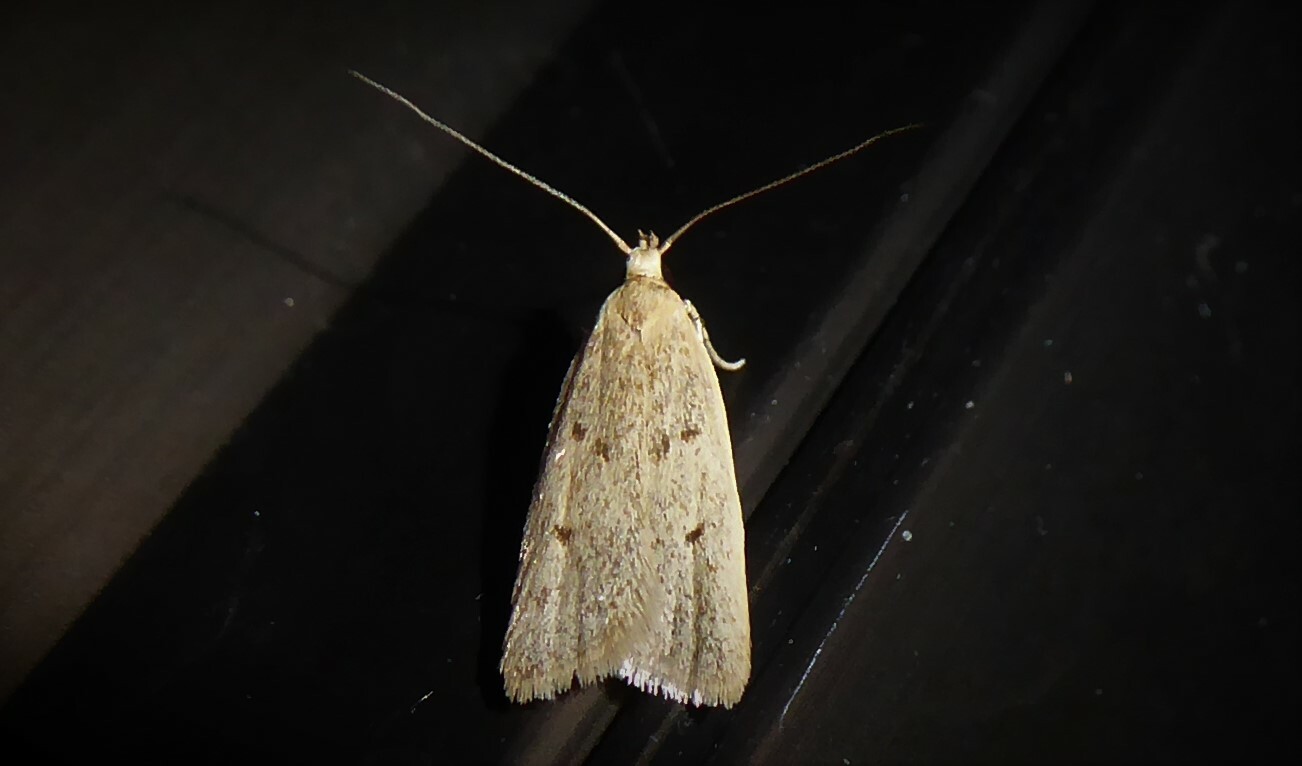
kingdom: Animalia
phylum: Arthropoda
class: Insecta
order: Lepidoptera
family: Oecophoridae
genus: Gymnobathra
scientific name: Gymnobathra sarcoxantha
